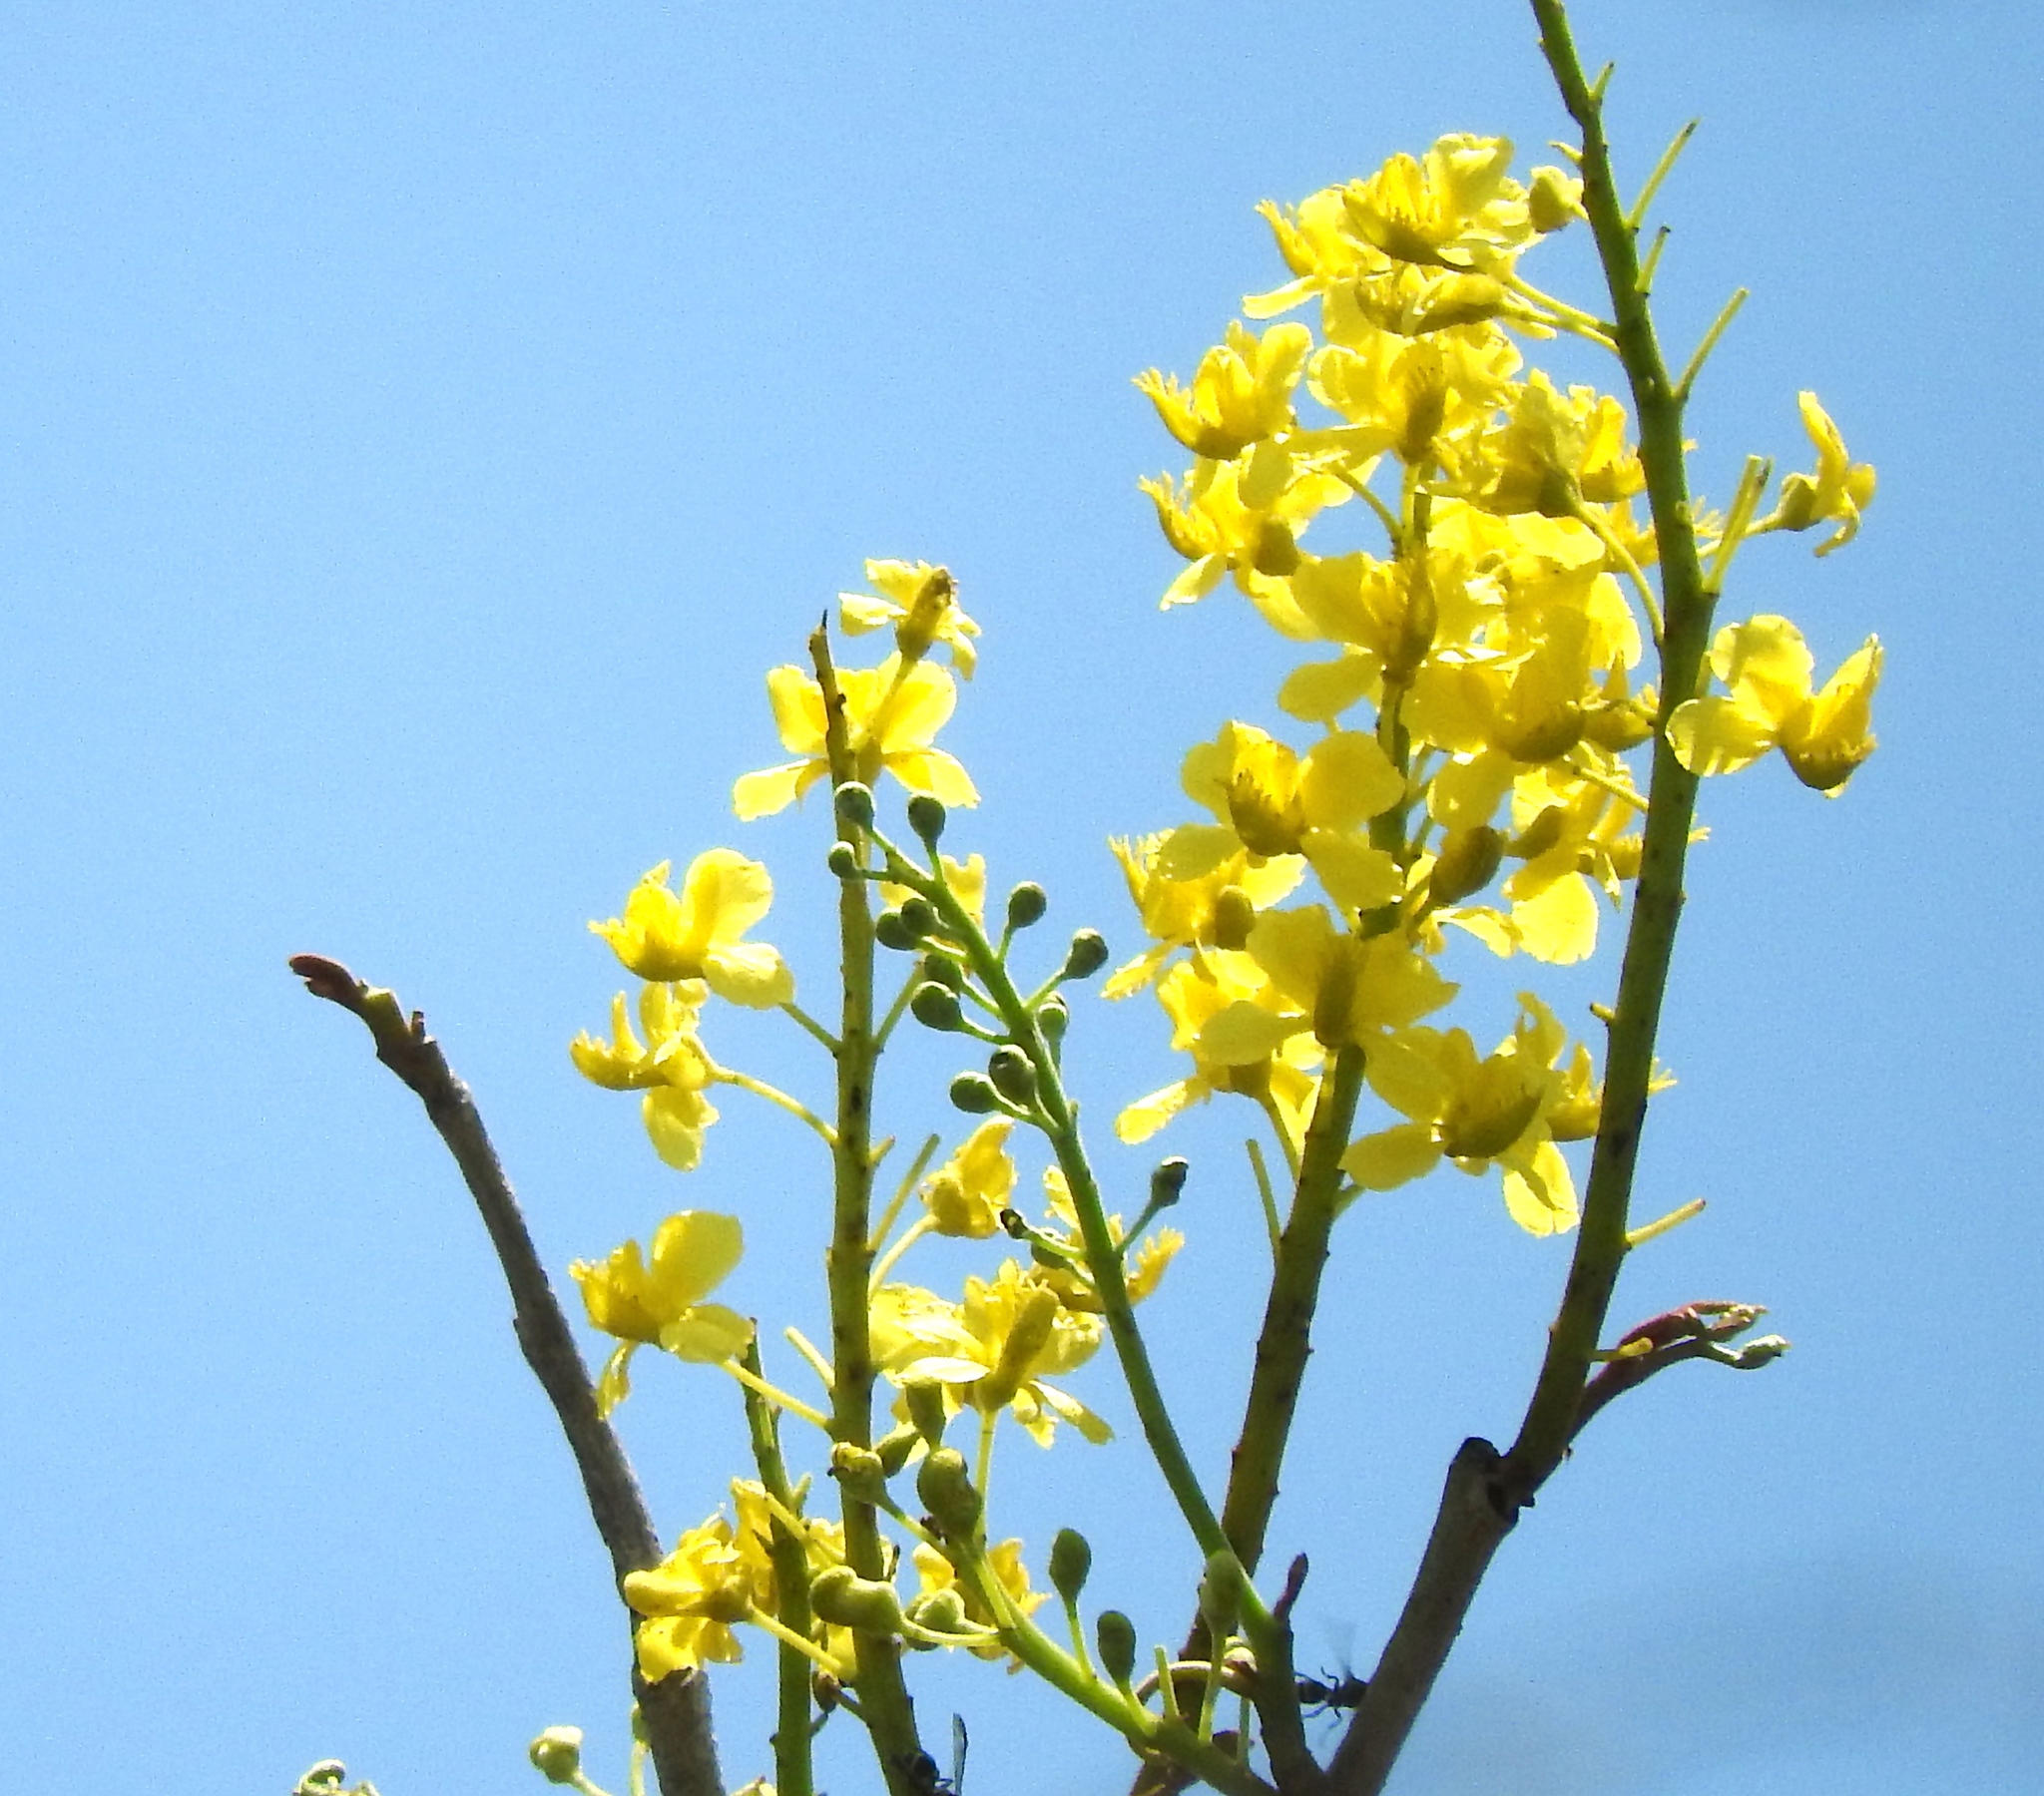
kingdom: Plantae
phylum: Tracheophyta
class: Magnoliopsida
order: Fabales
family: Fabaceae
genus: Coulteria
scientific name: Coulteria platyloba
